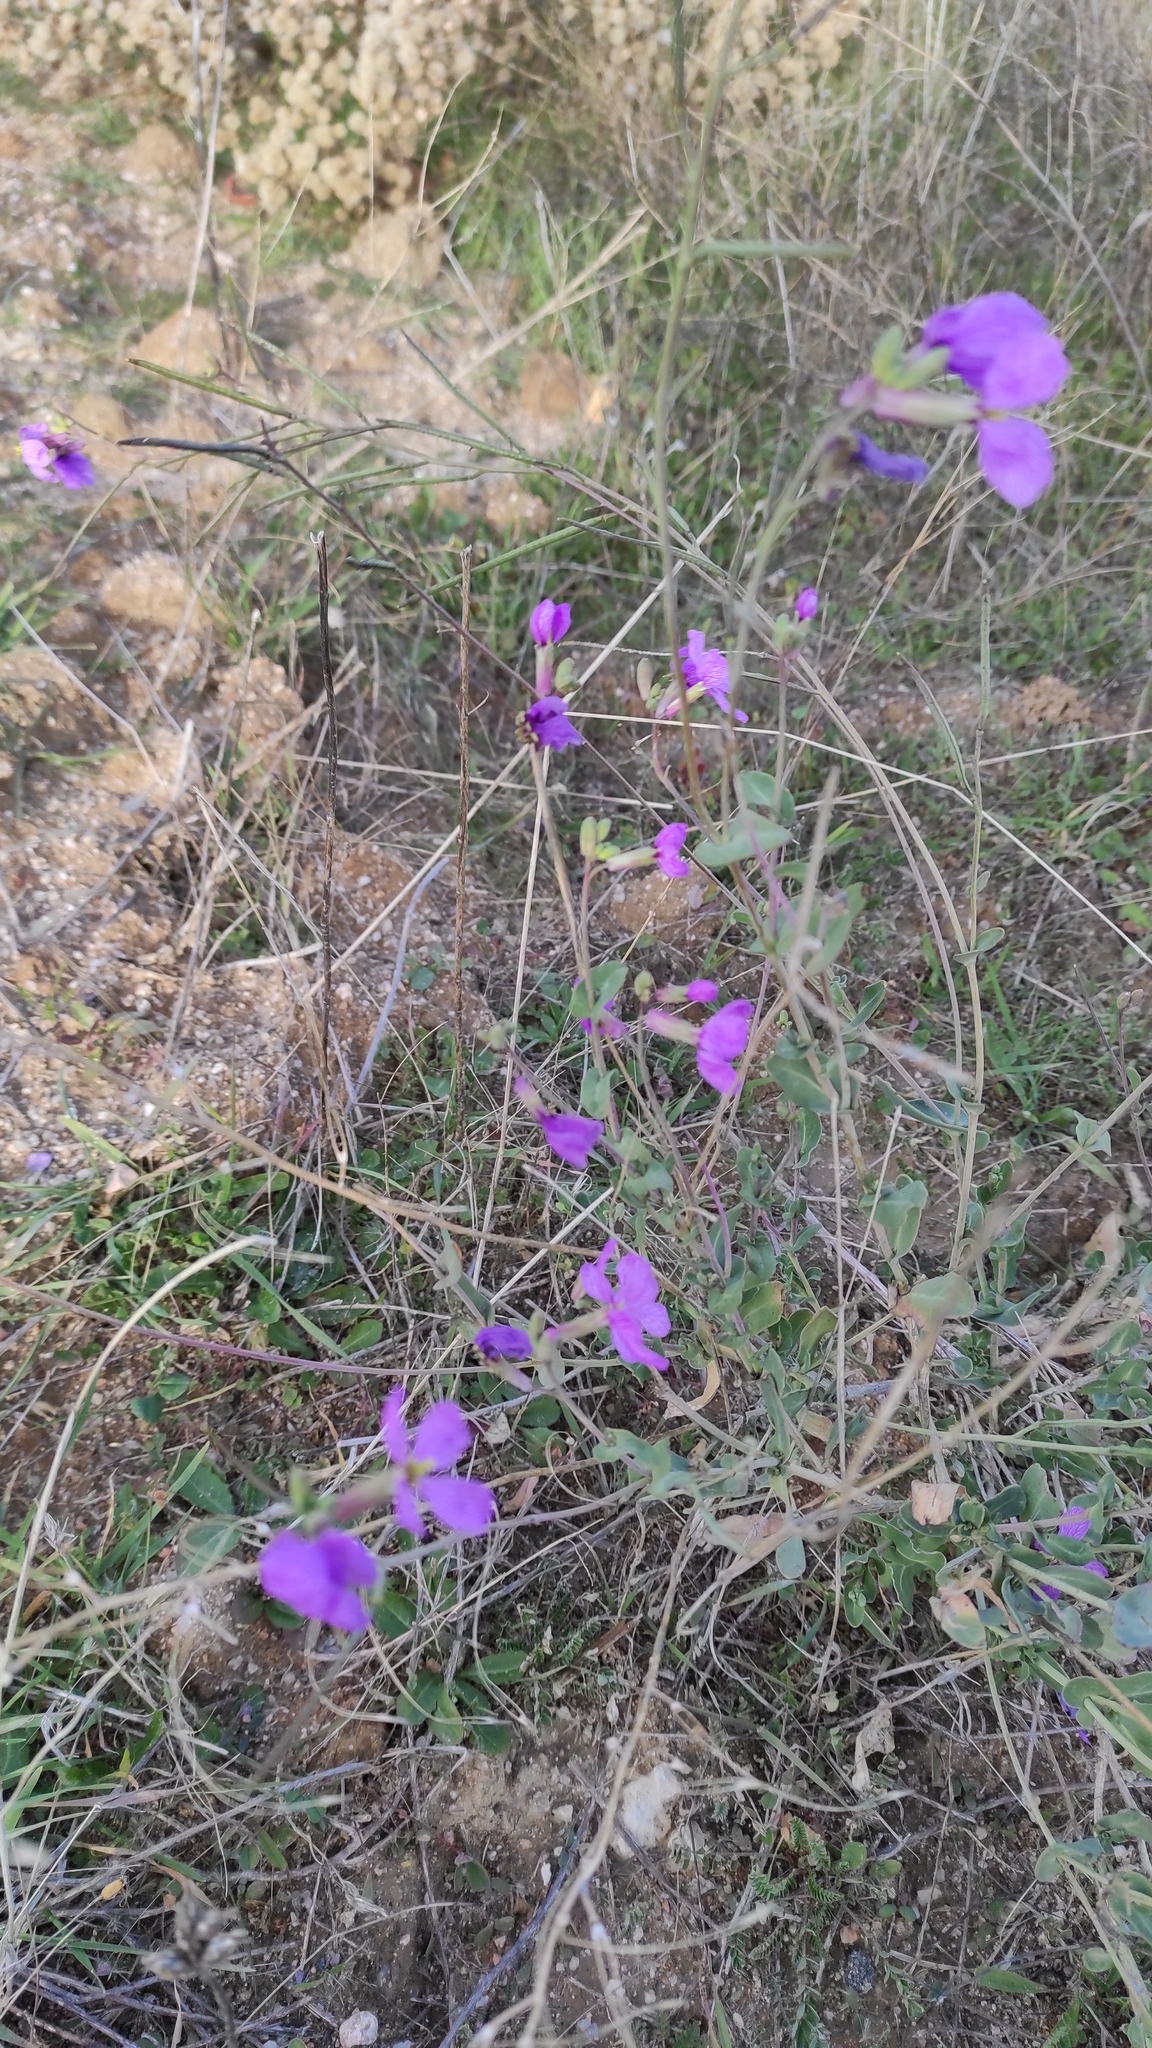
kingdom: Plantae
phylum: Tracheophyta
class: Magnoliopsida
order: Brassicales
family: Brassicaceae
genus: Moricandia
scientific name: Moricandia arvensis
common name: Purple mistress
